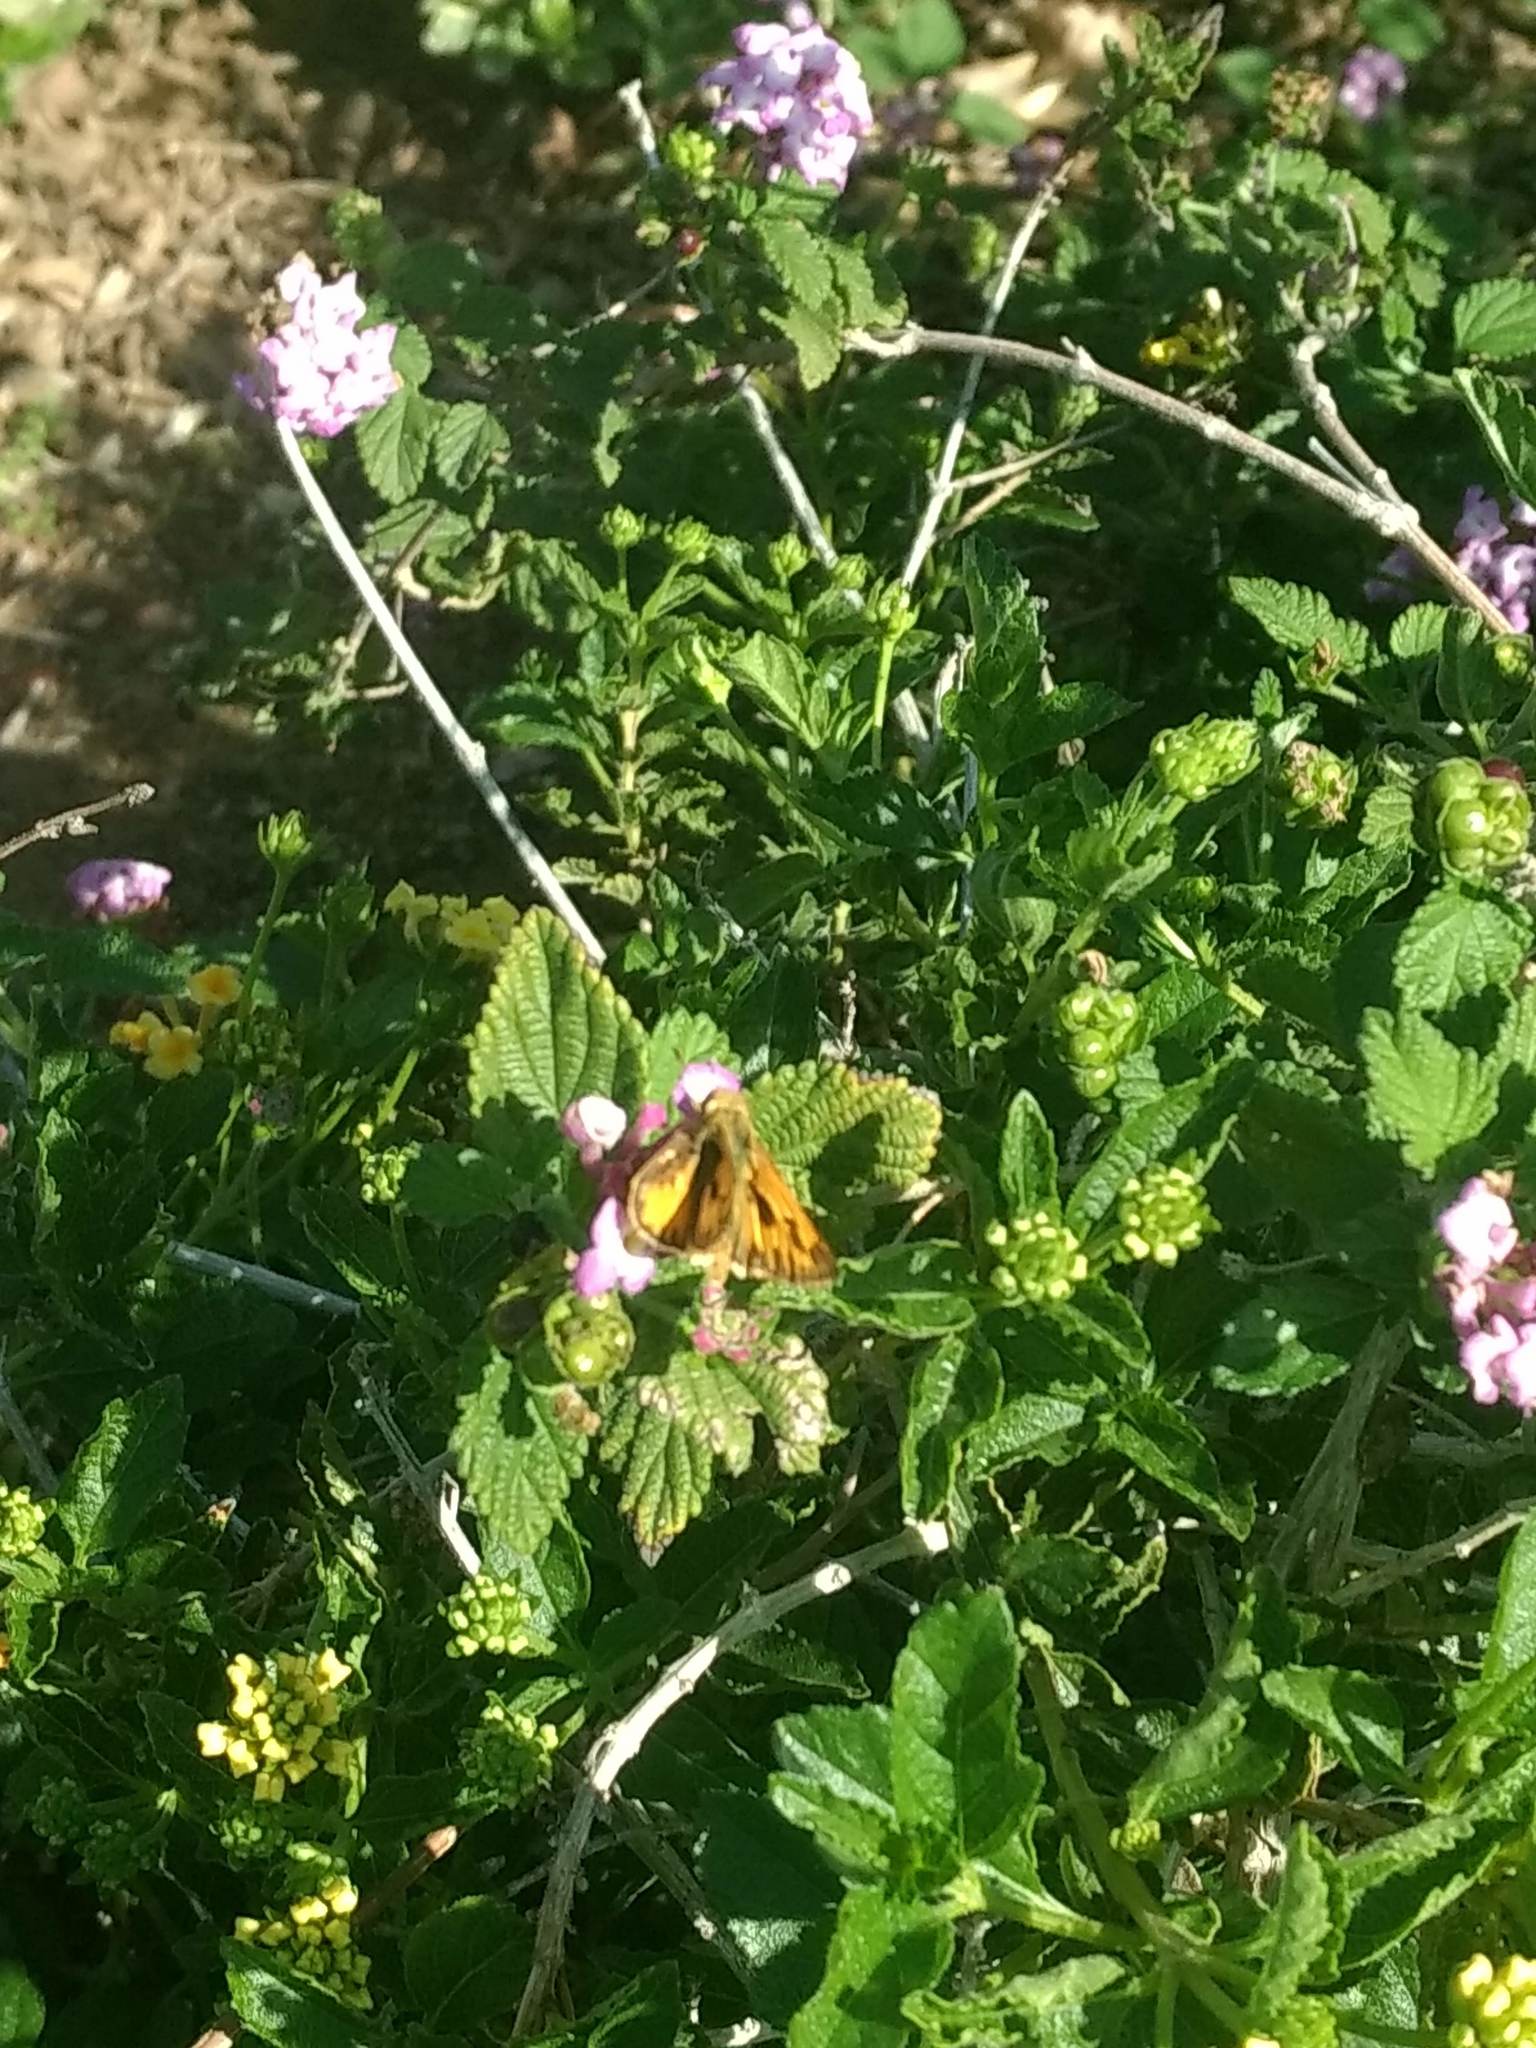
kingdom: Animalia
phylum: Arthropoda
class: Insecta
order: Lepidoptera
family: Hesperiidae
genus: Hylephila
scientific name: Hylephila phyleus
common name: Fiery skipper
